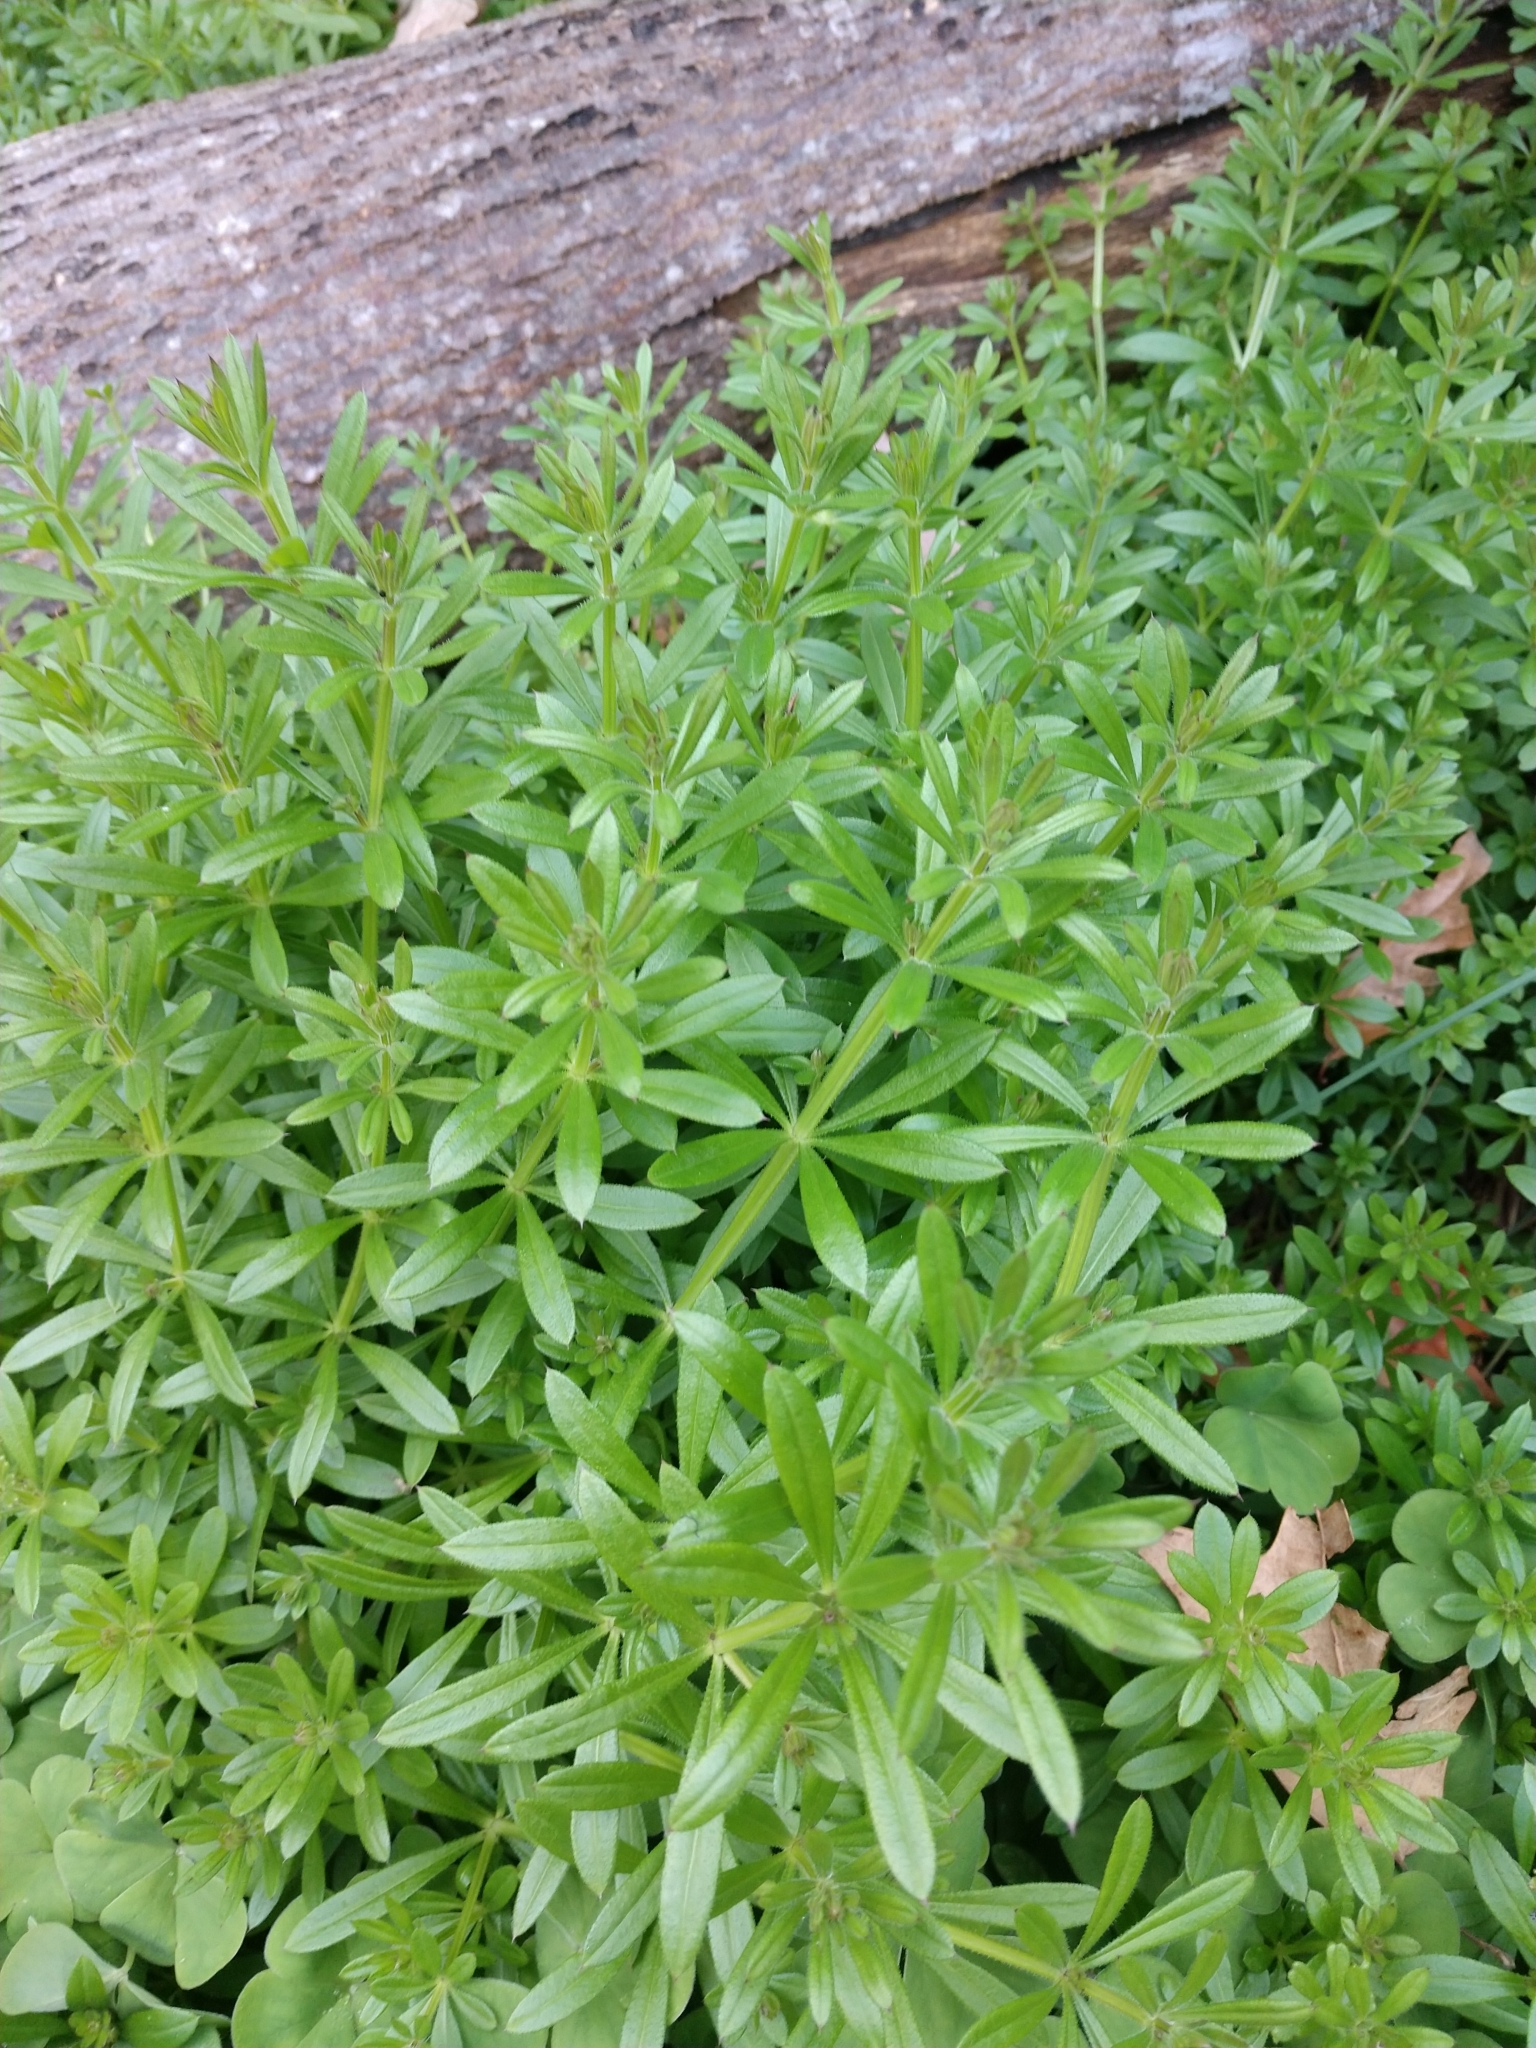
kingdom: Plantae
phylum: Tracheophyta
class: Magnoliopsida
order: Gentianales
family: Rubiaceae
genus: Galium
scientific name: Galium aparine
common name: Cleavers
